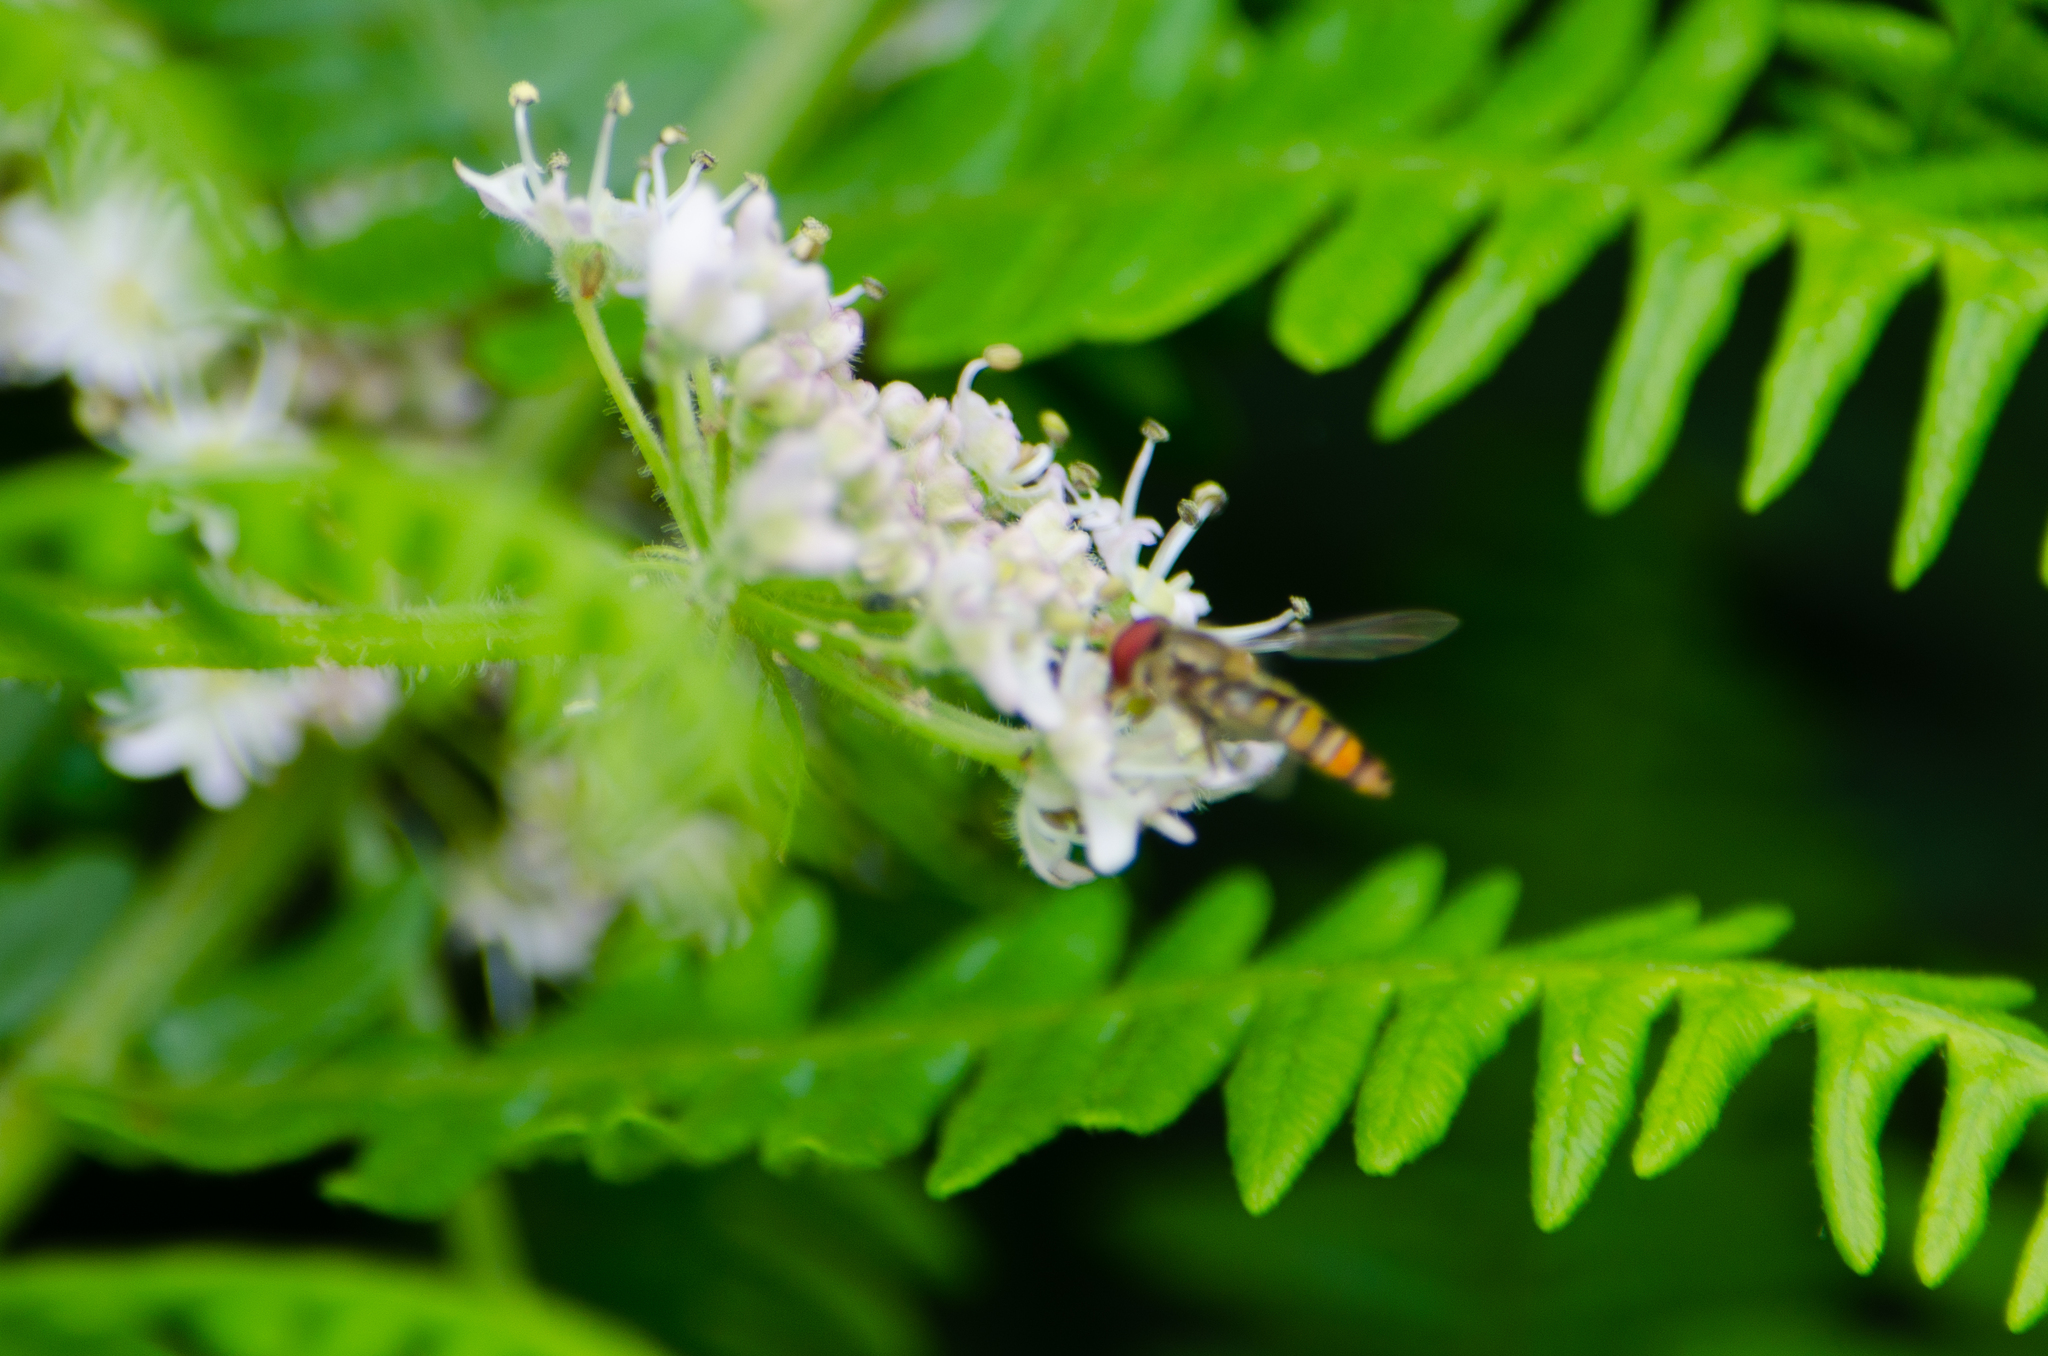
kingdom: Animalia
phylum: Arthropoda
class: Insecta
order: Diptera
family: Syrphidae
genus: Episyrphus
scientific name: Episyrphus balteatus
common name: Marmalade hoverfly
